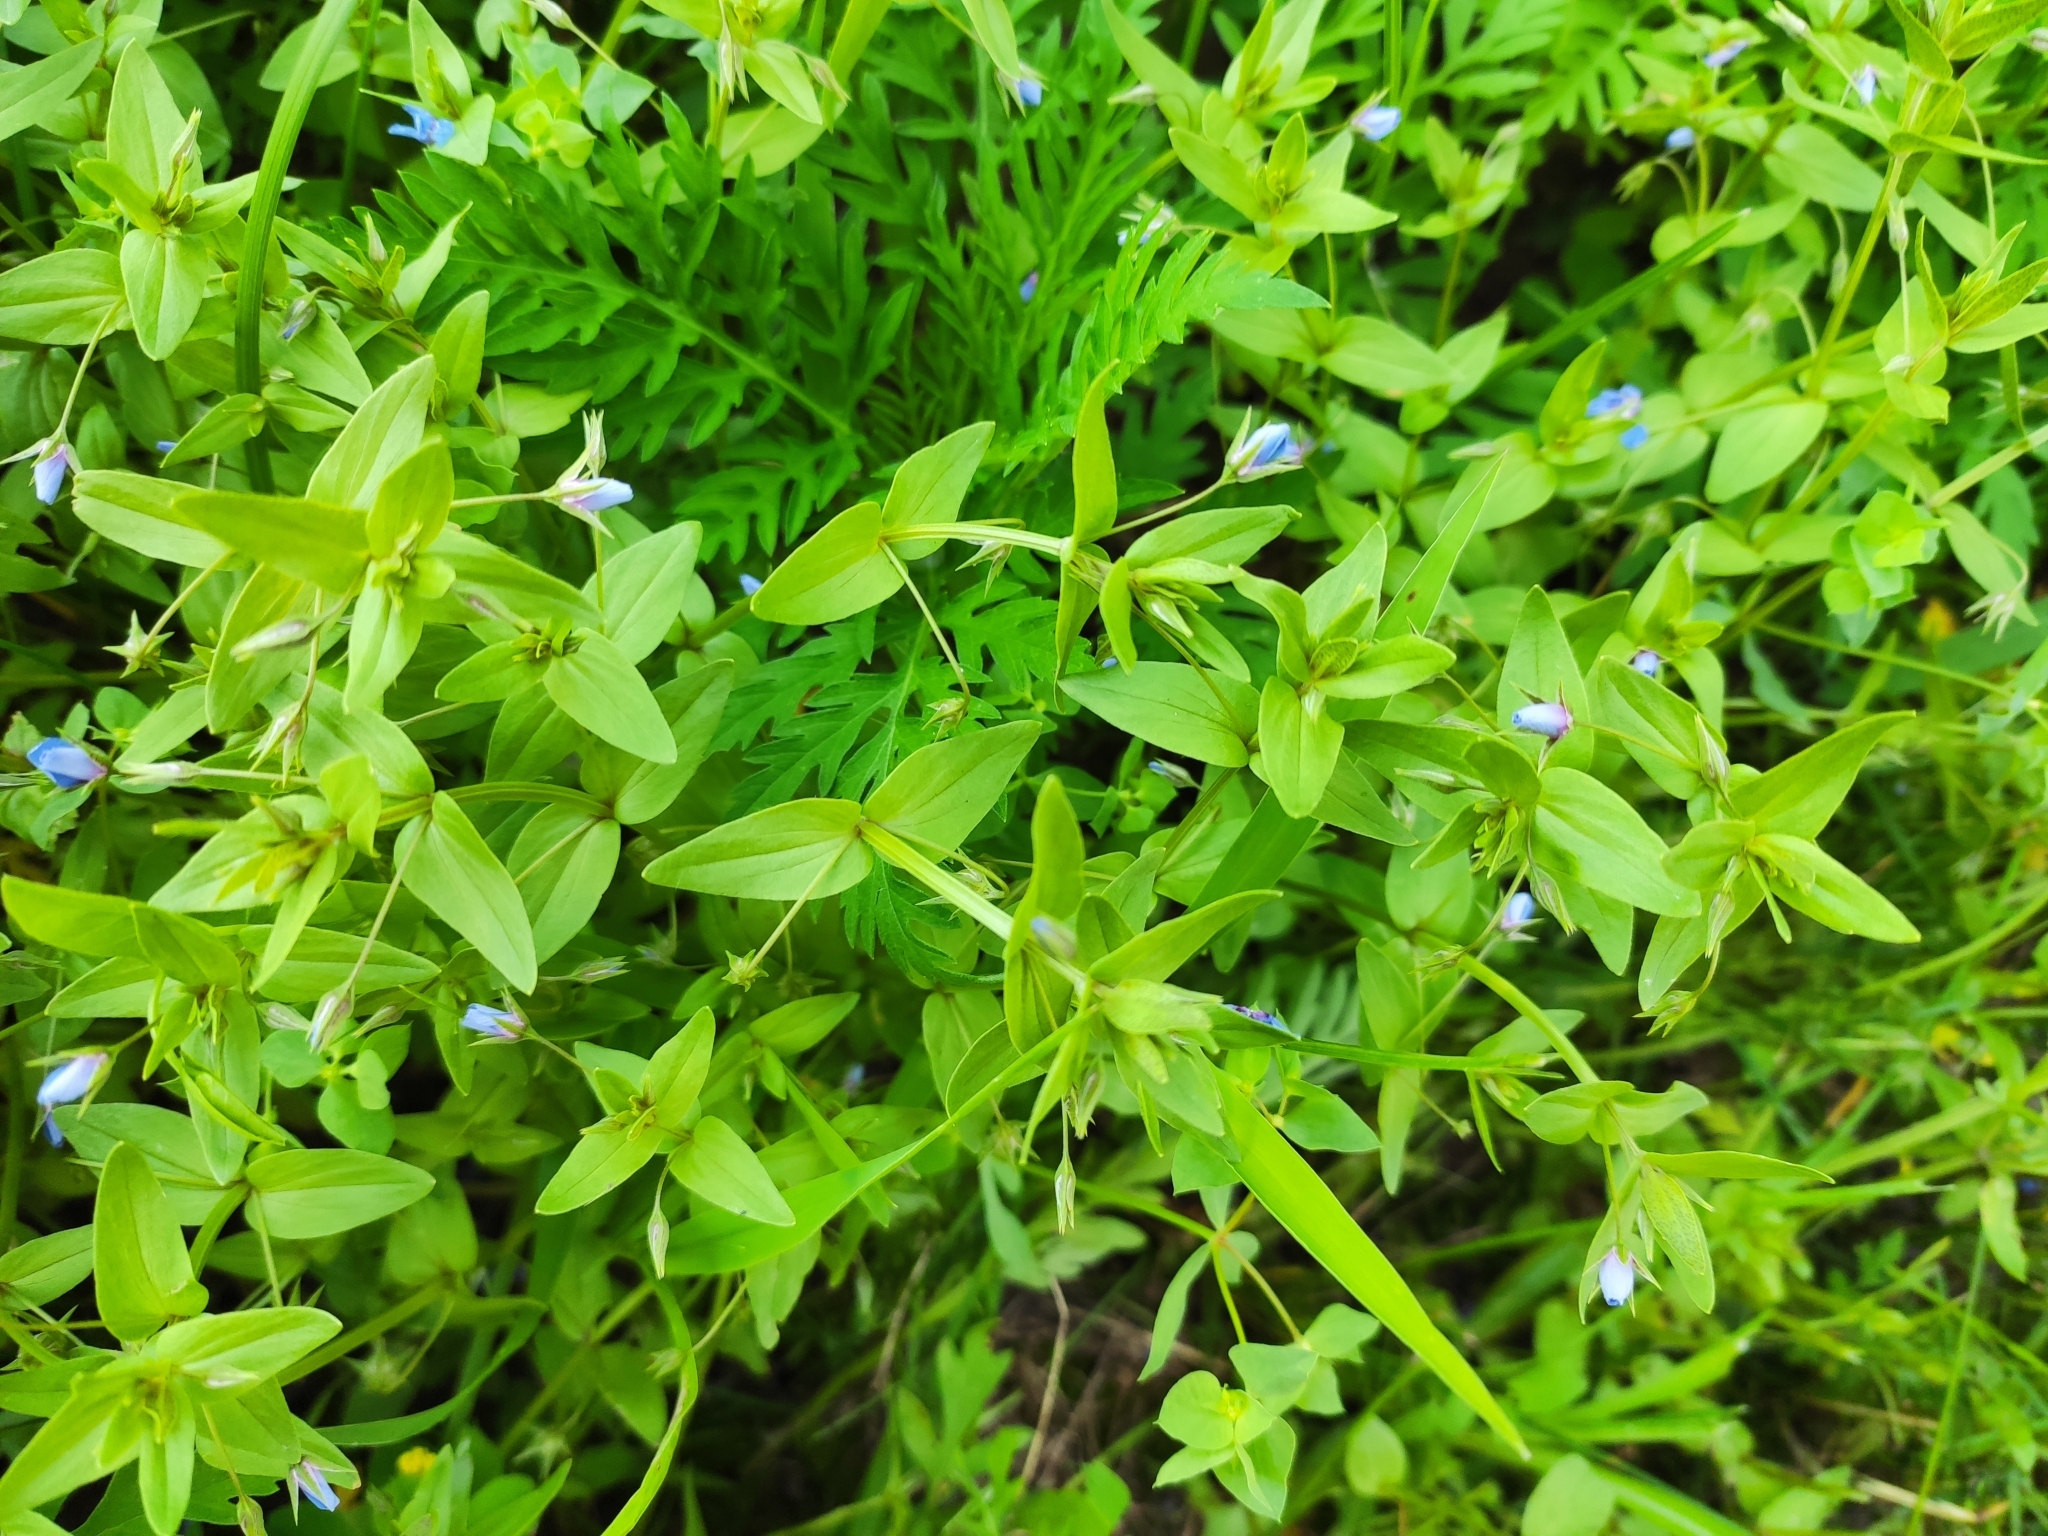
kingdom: Plantae
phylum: Tracheophyta
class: Magnoliopsida
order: Ericales
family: Primulaceae
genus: Lysimachia
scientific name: Lysimachia foemina
